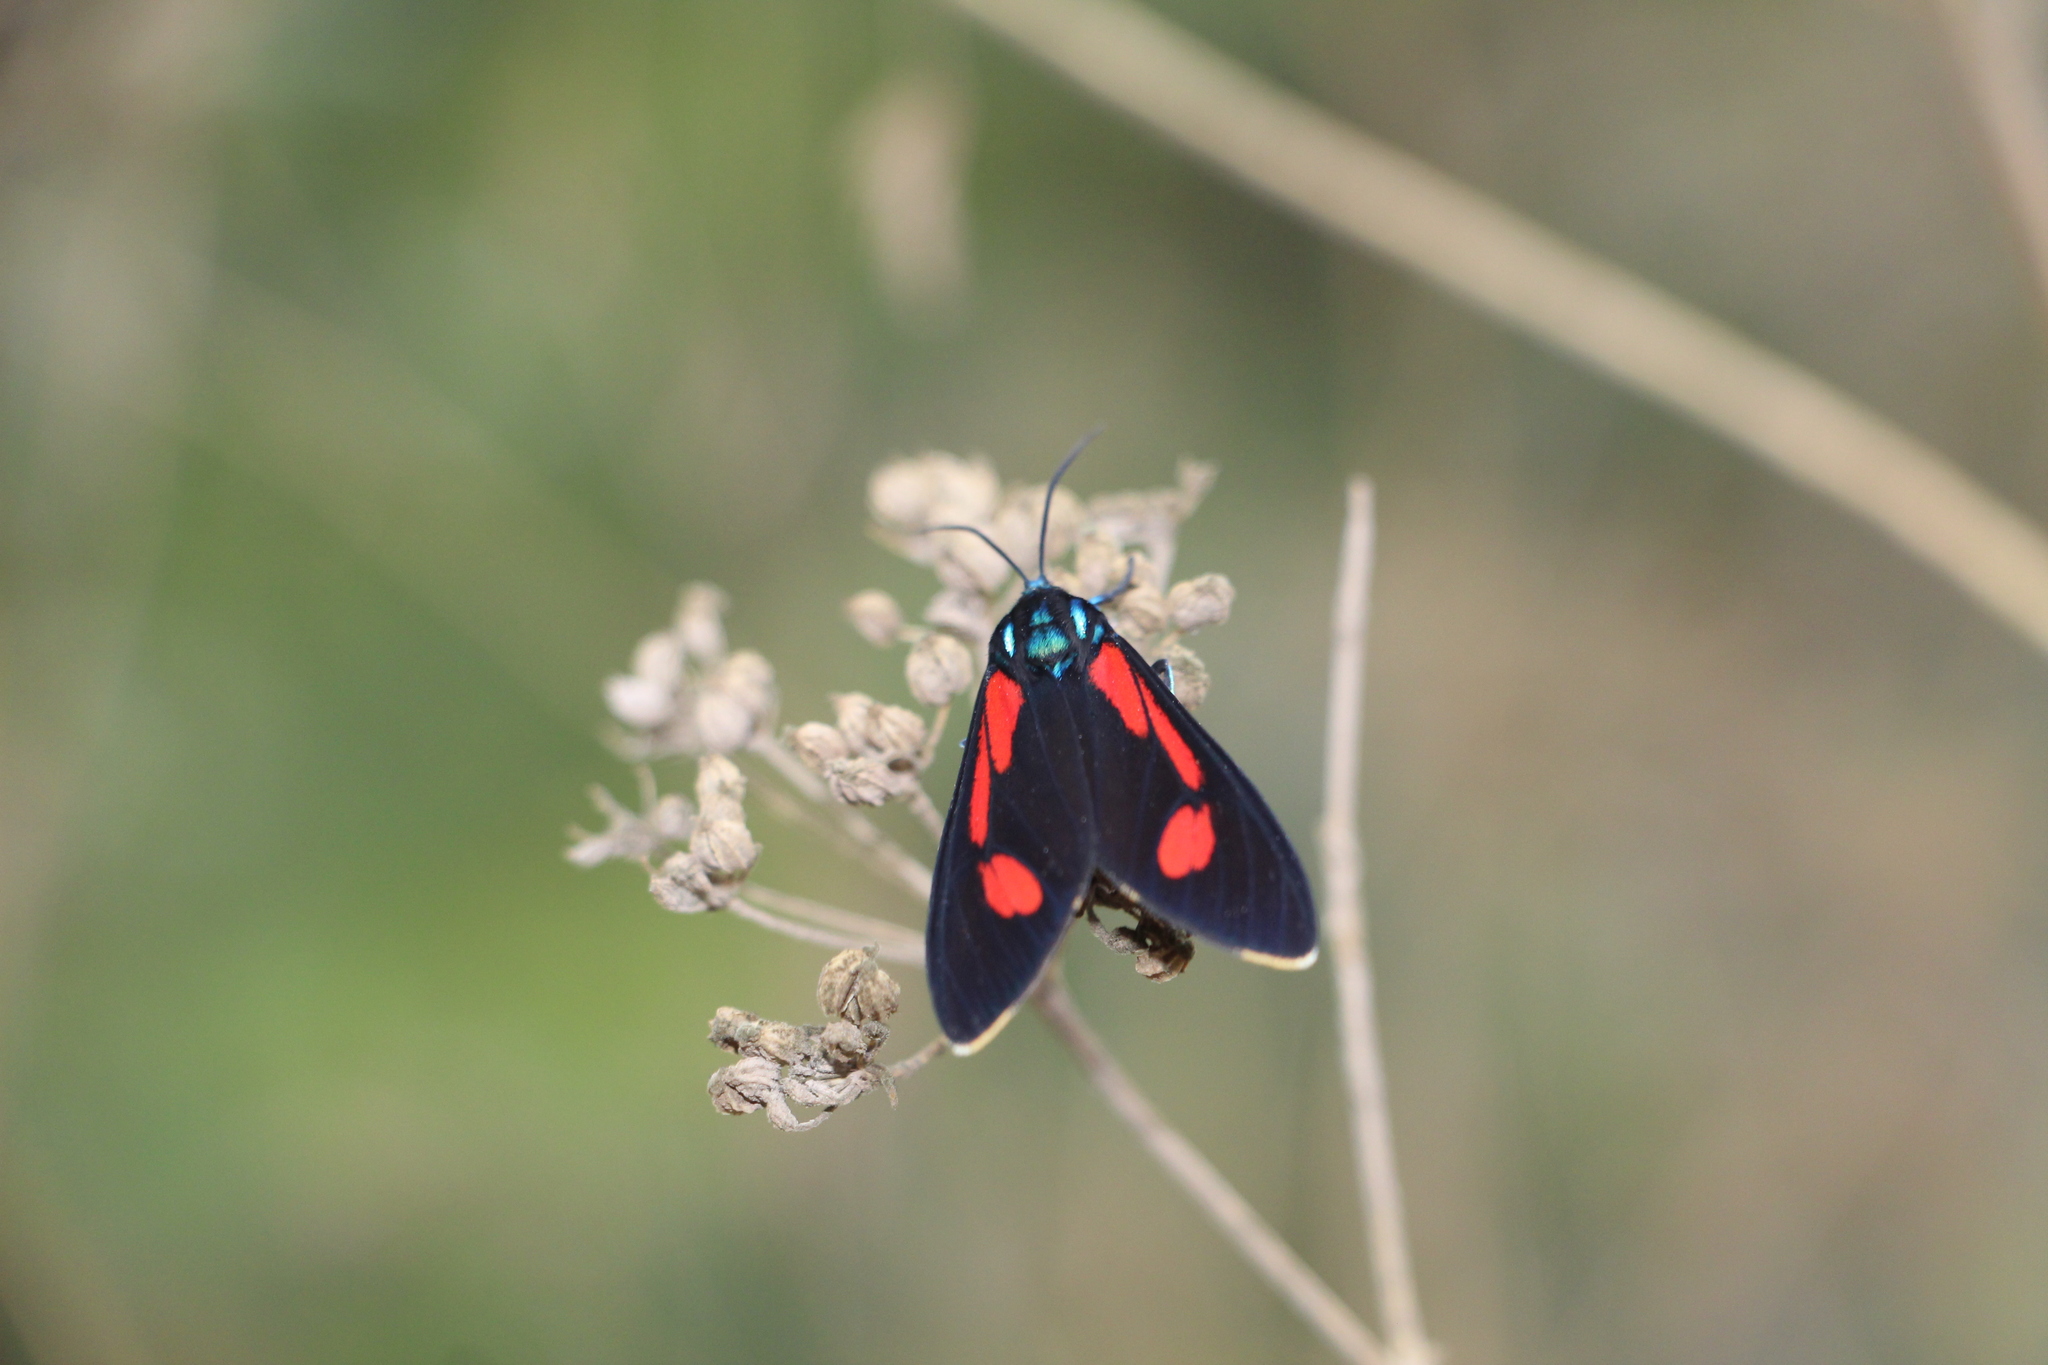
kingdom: Animalia
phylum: Arthropoda
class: Insecta
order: Lepidoptera
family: Erebidae
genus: Cyanopepla
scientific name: Cyanopepla hurama
